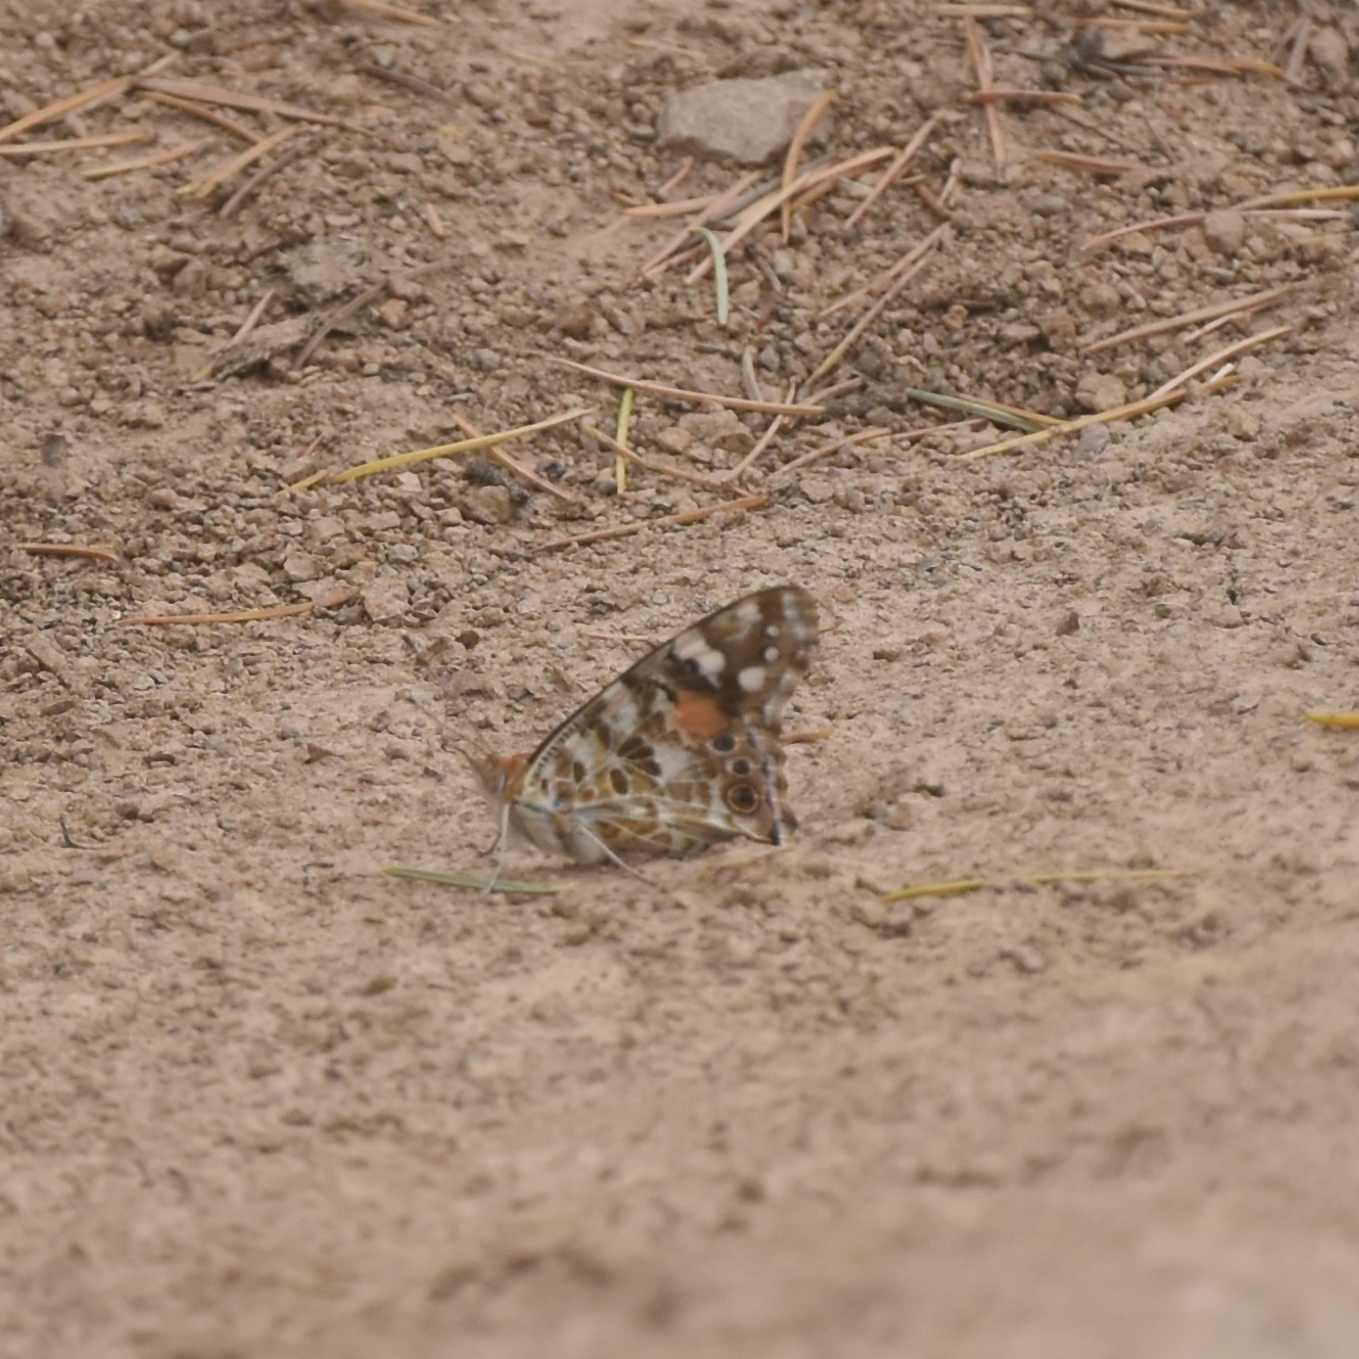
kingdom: Animalia
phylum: Arthropoda
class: Insecta
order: Lepidoptera
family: Nymphalidae
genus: Vanessa
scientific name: Vanessa cardui
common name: Painted lady
